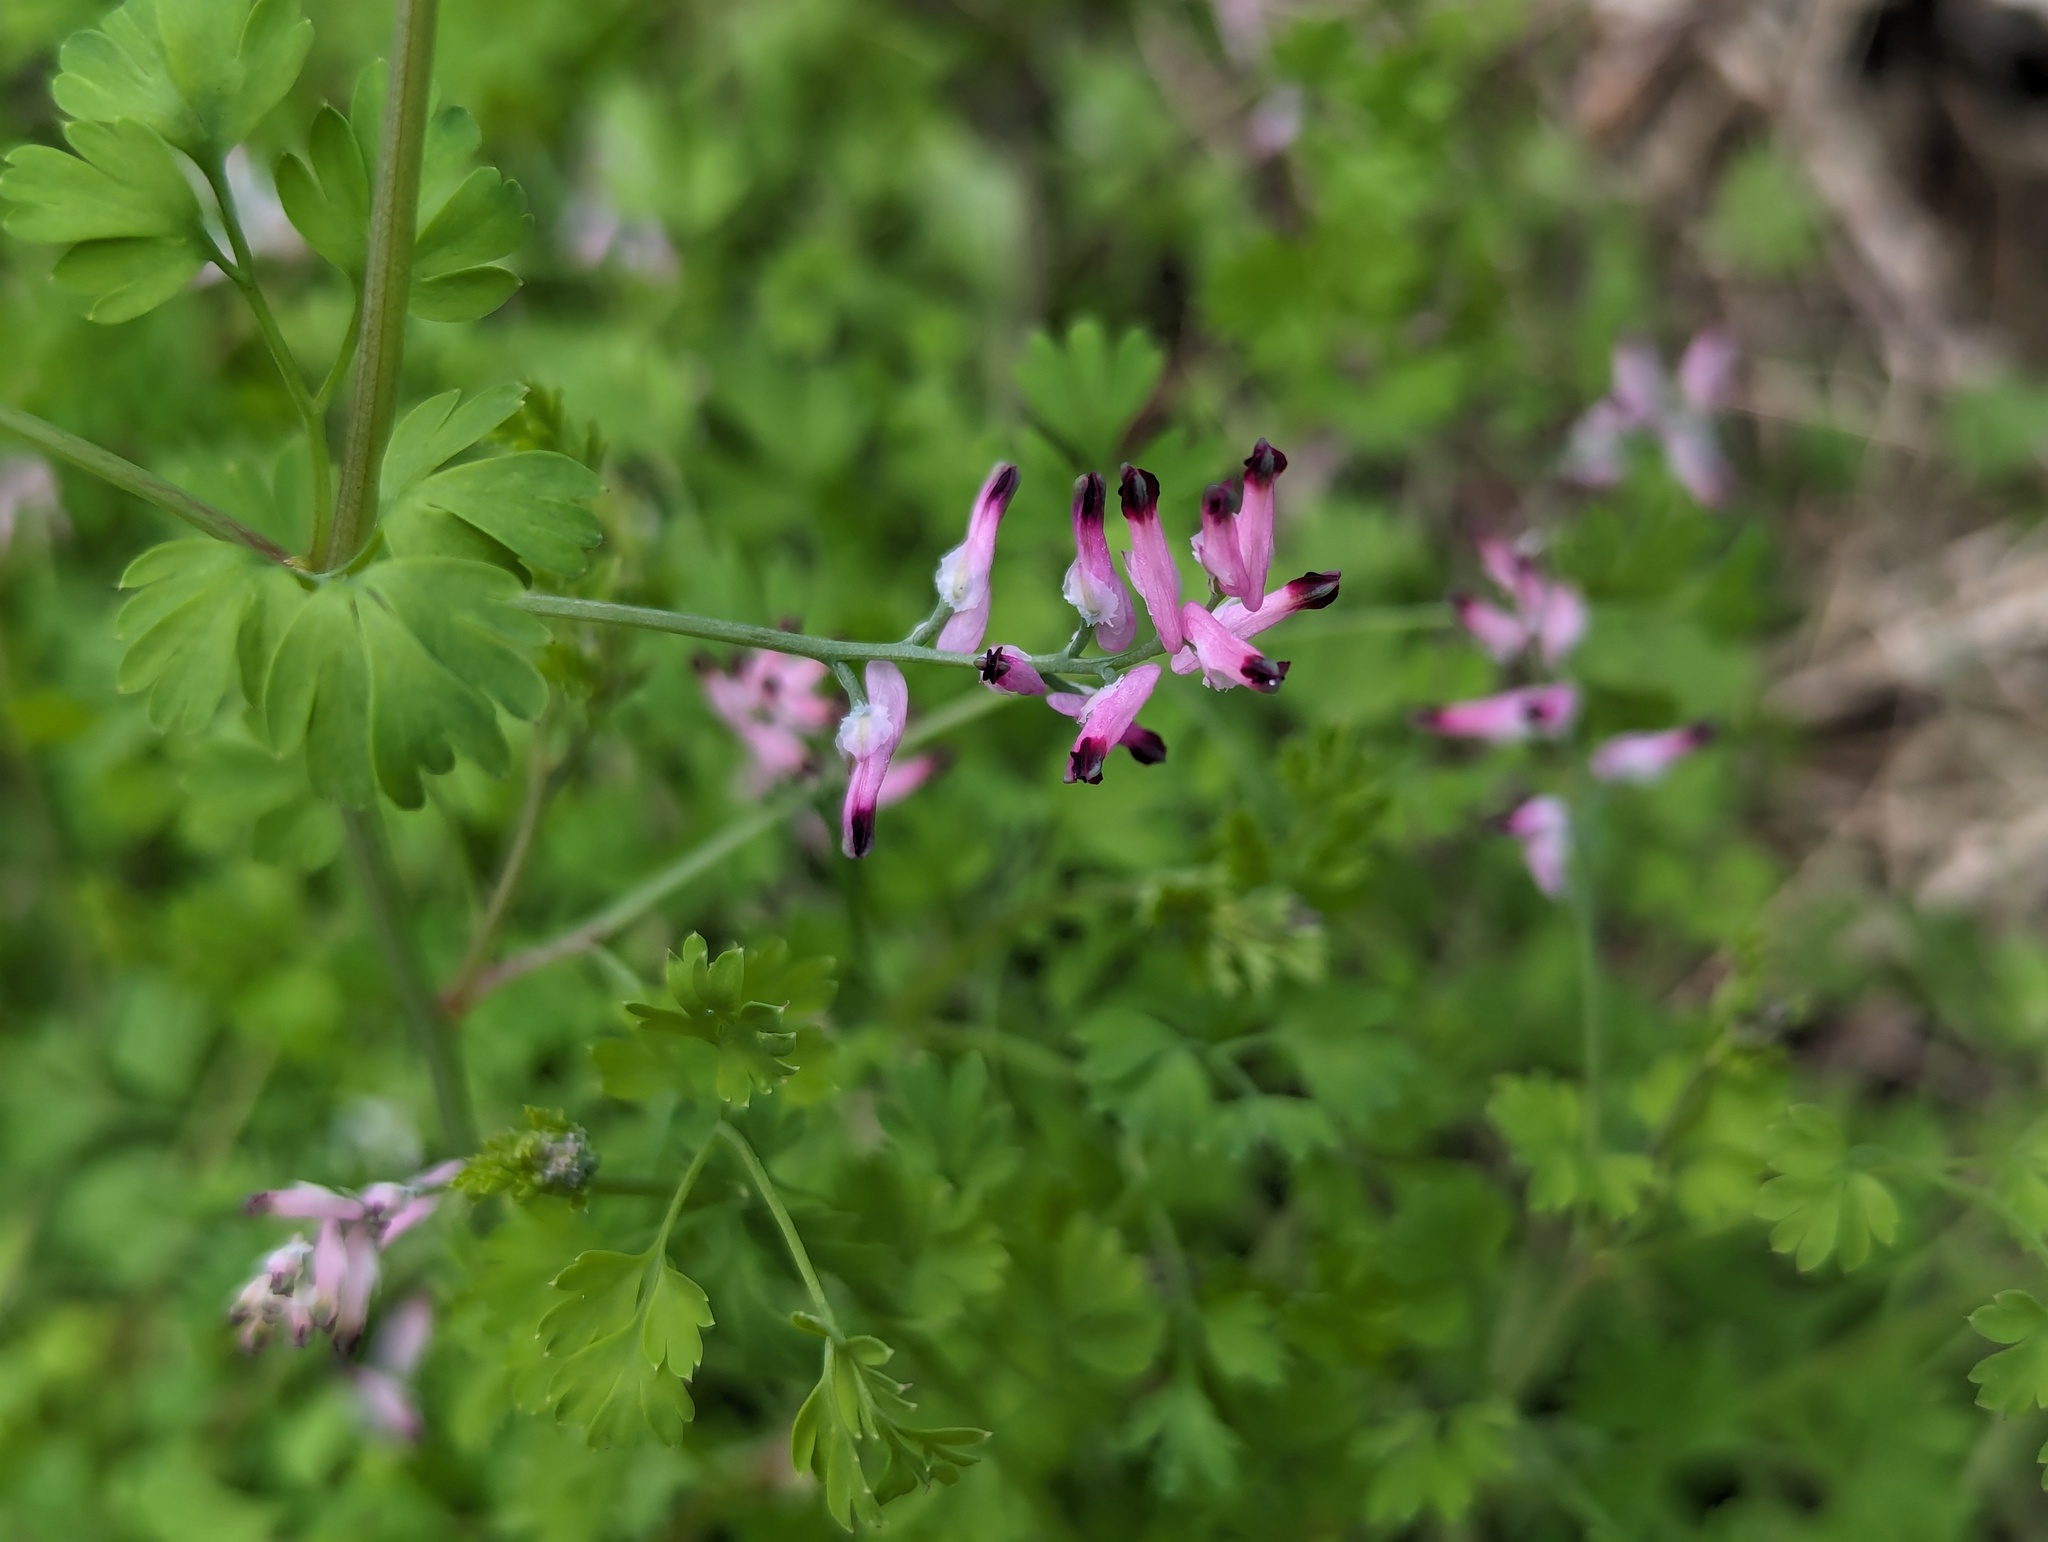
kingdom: Plantae
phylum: Tracheophyta
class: Magnoliopsida
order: Ranunculales
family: Papaveraceae
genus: Fumaria
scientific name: Fumaria muralis
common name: Common ramping-fumitory
